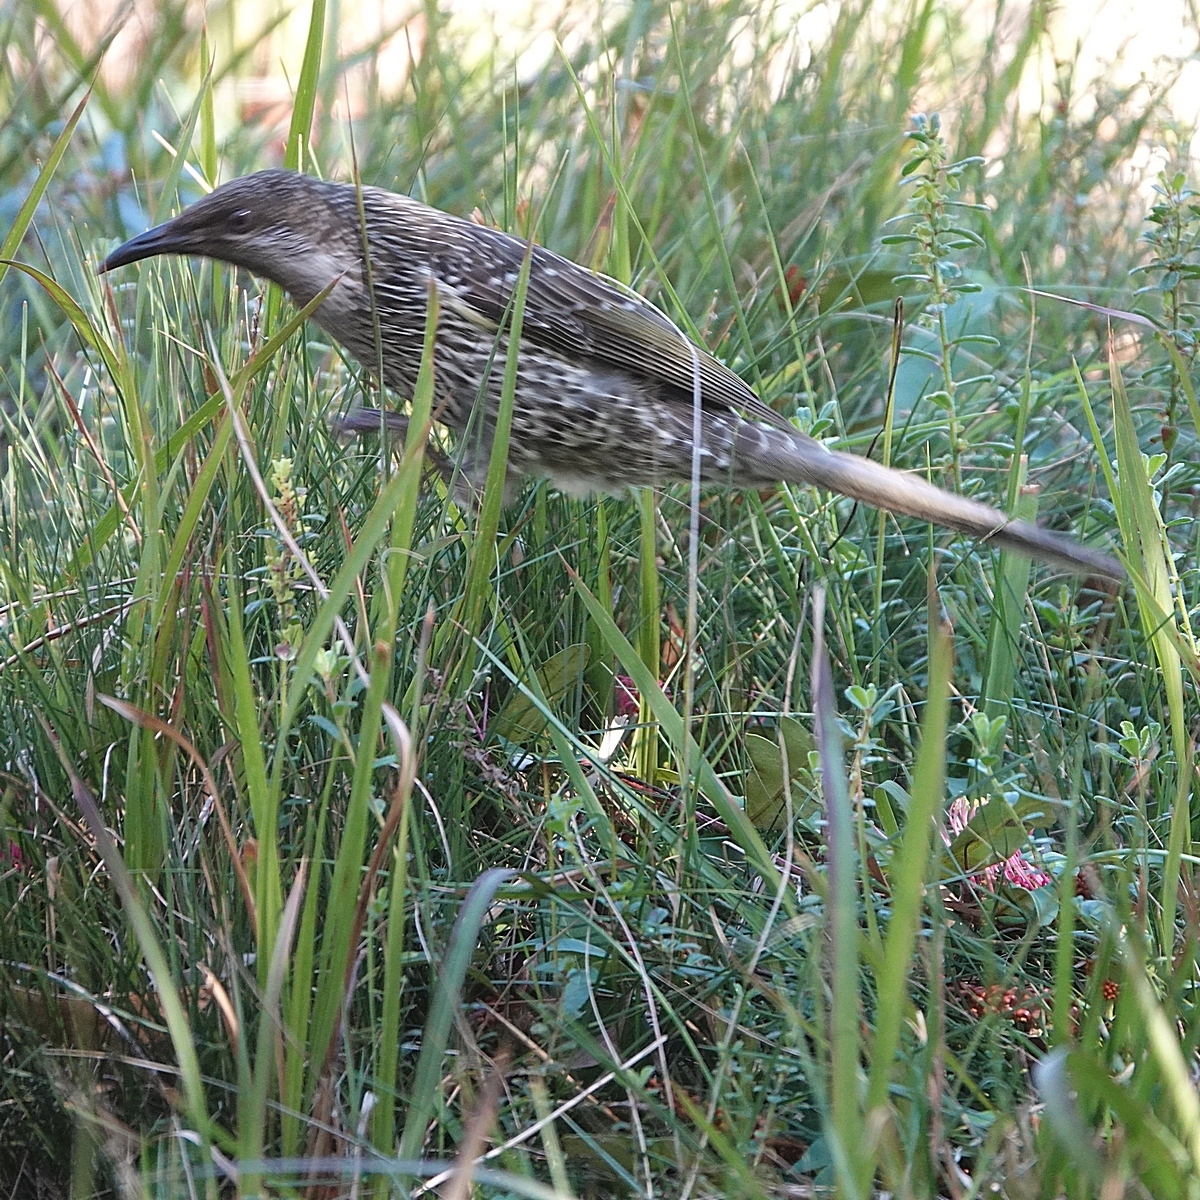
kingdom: Animalia
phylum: Chordata
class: Aves
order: Passeriformes
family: Meliphagidae
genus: Anthochaera
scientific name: Anthochaera chrysoptera
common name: Little wattlebird
